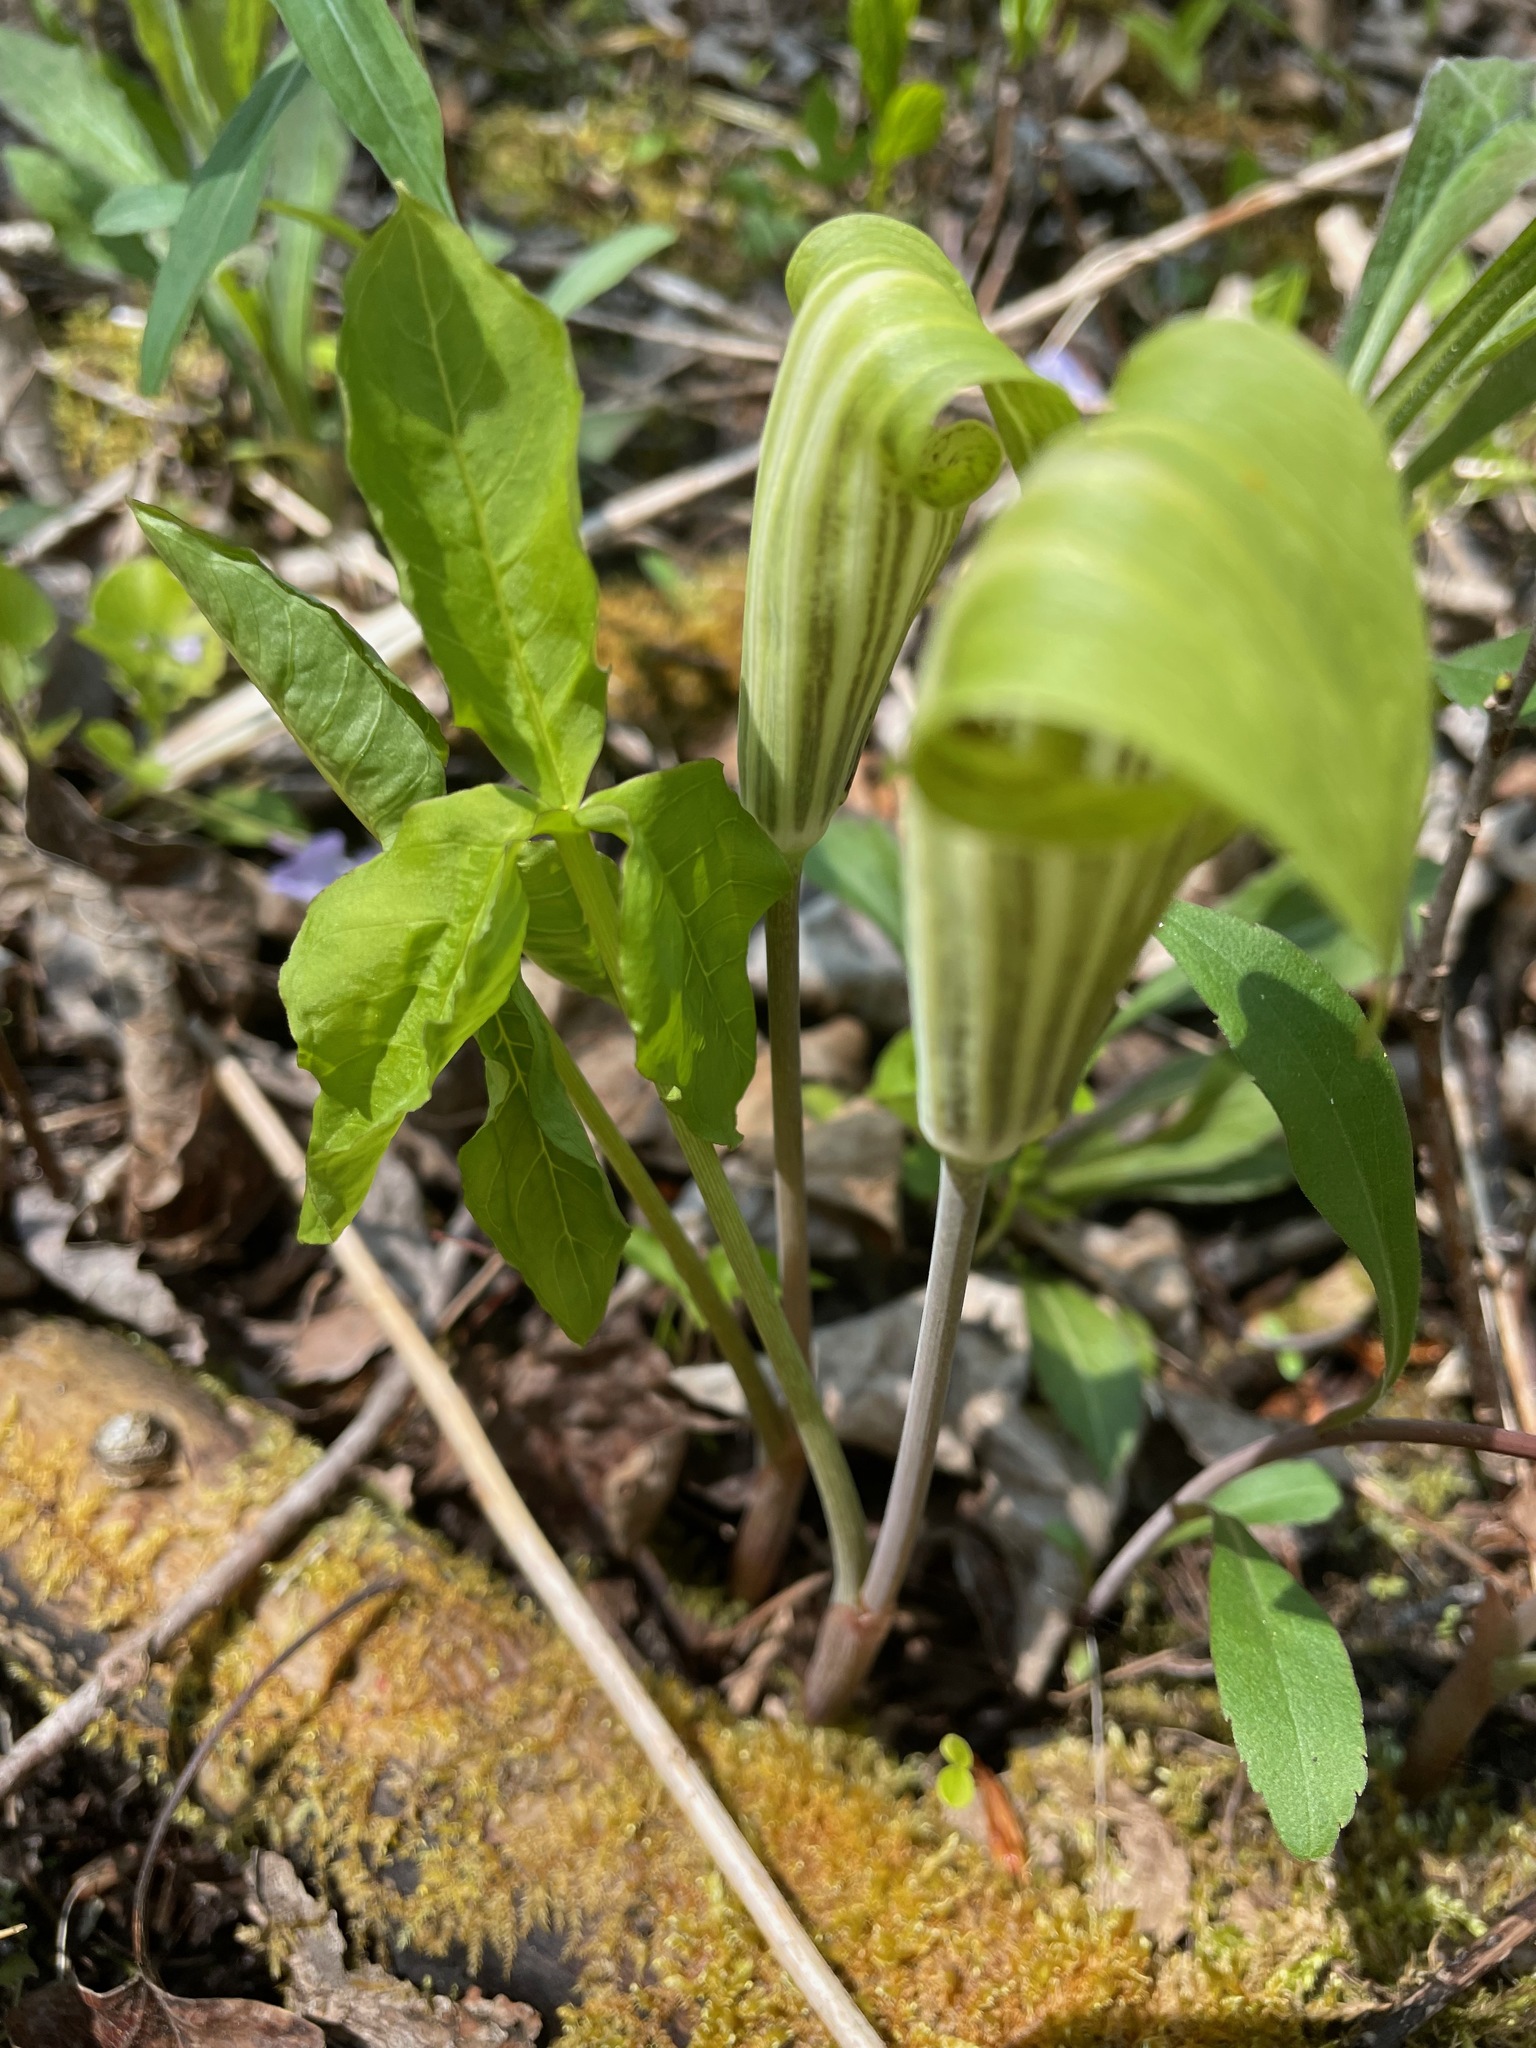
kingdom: Plantae
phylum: Tracheophyta
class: Liliopsida
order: Alismatales
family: Araceae
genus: Arisaema
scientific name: Arisaema triphyllum
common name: Jack-in-the-pulpit
